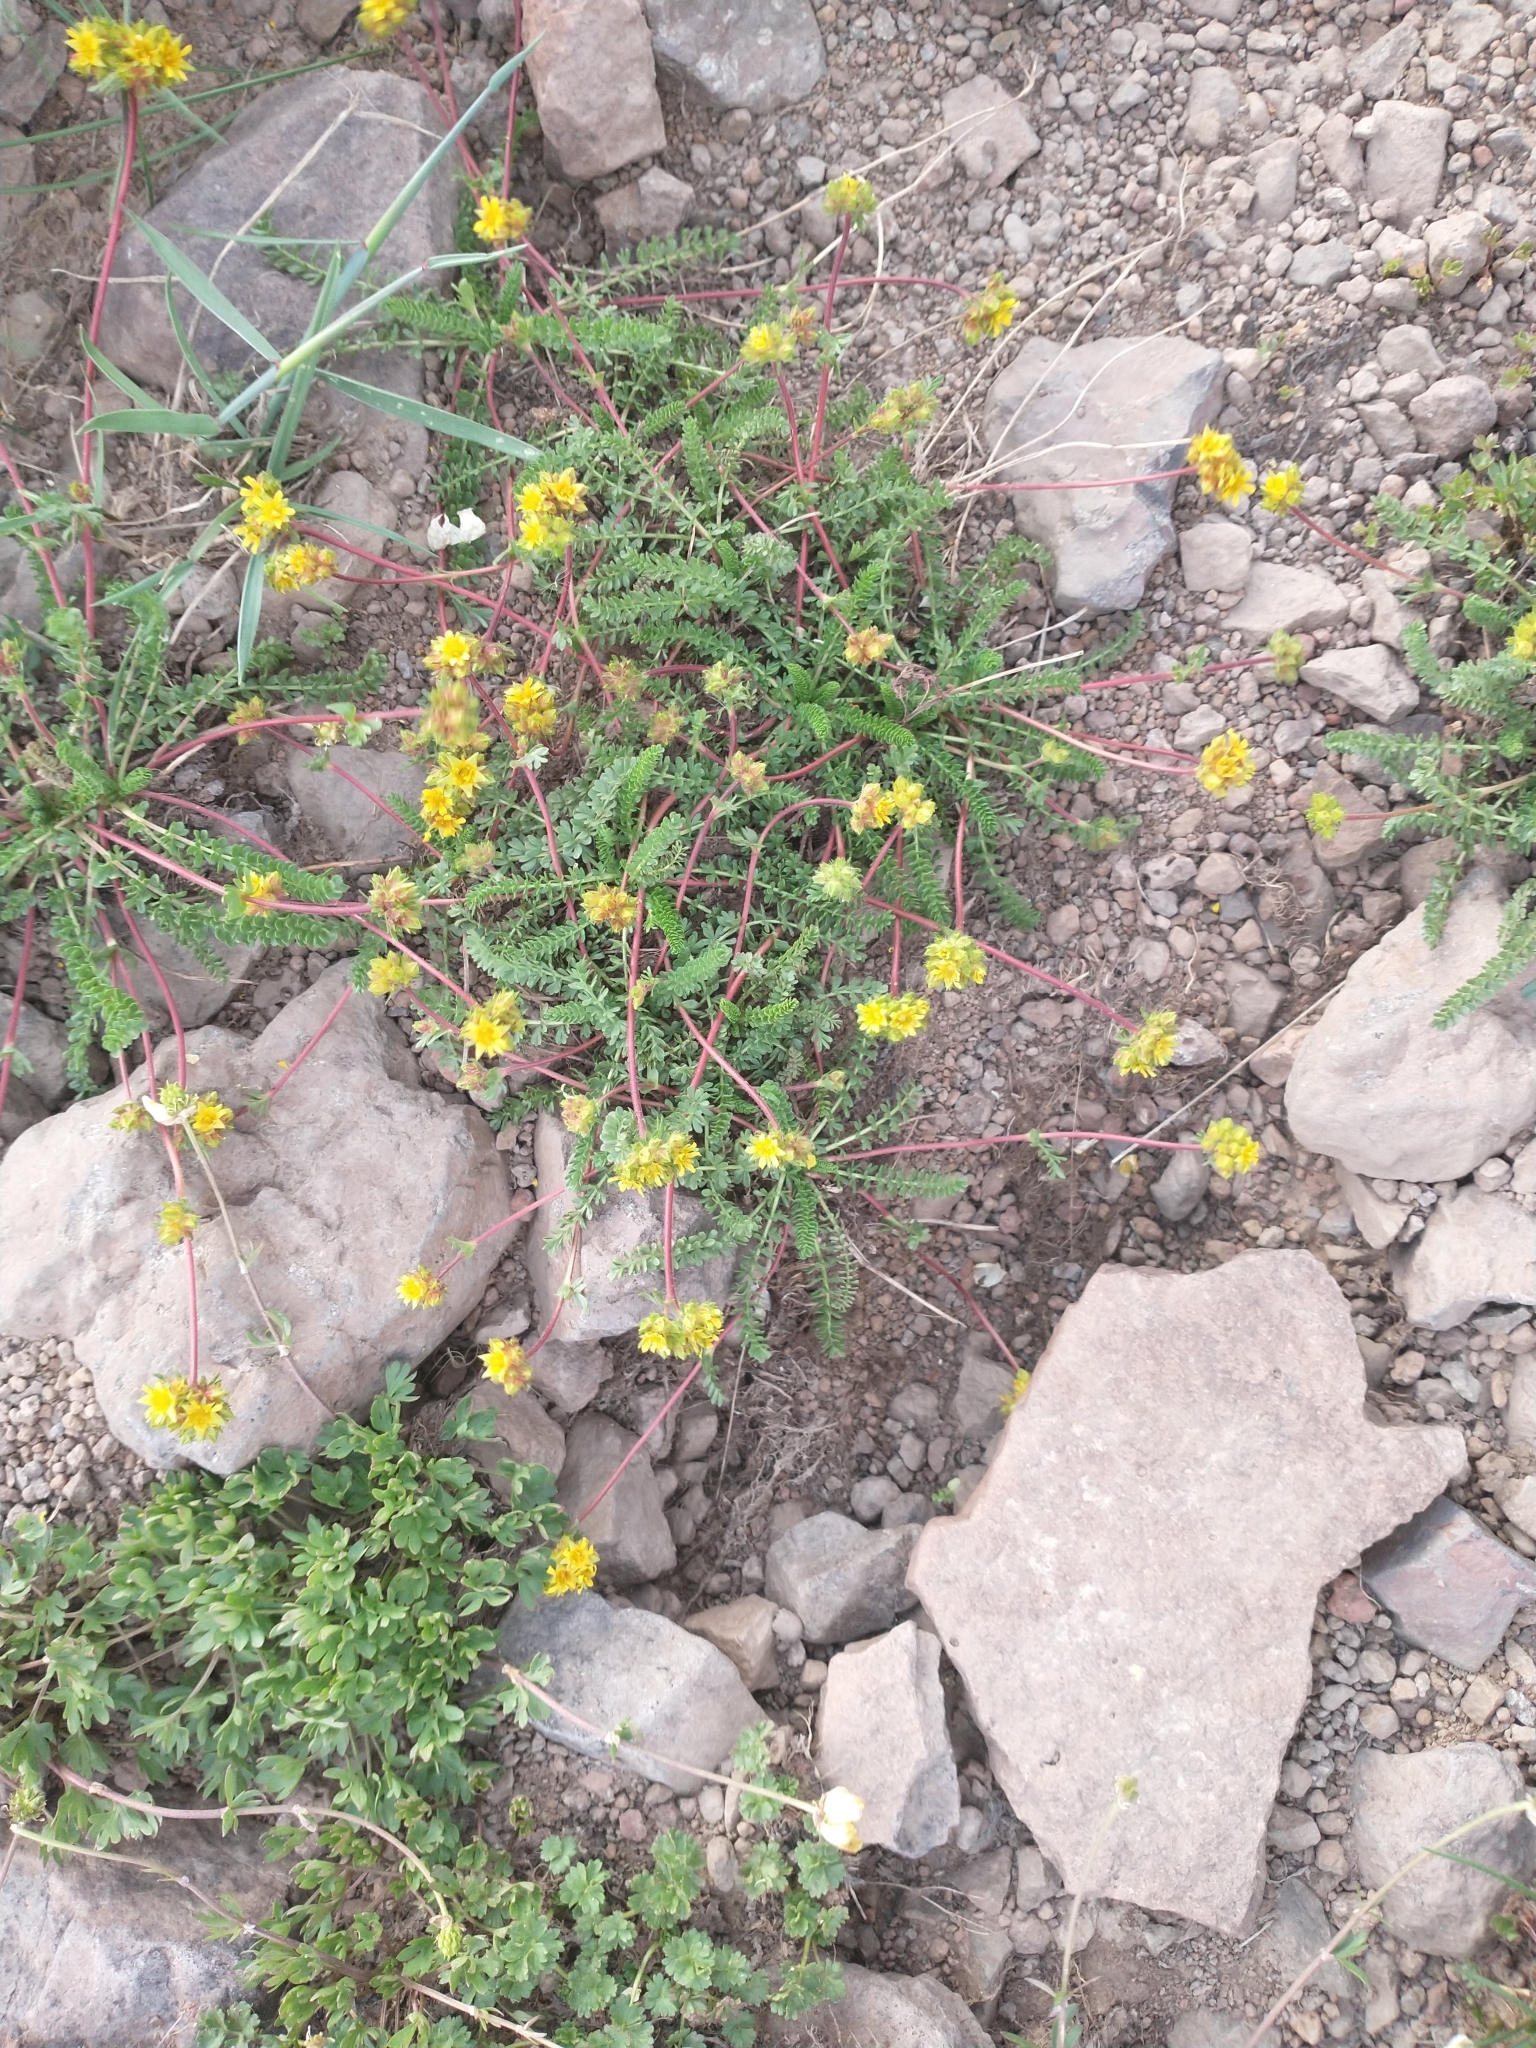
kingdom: Plantae
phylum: Tracheophyta
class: Magnoliopsida
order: Rosales
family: Rosaceae
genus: Potentilla
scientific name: Potentilla gordonii
